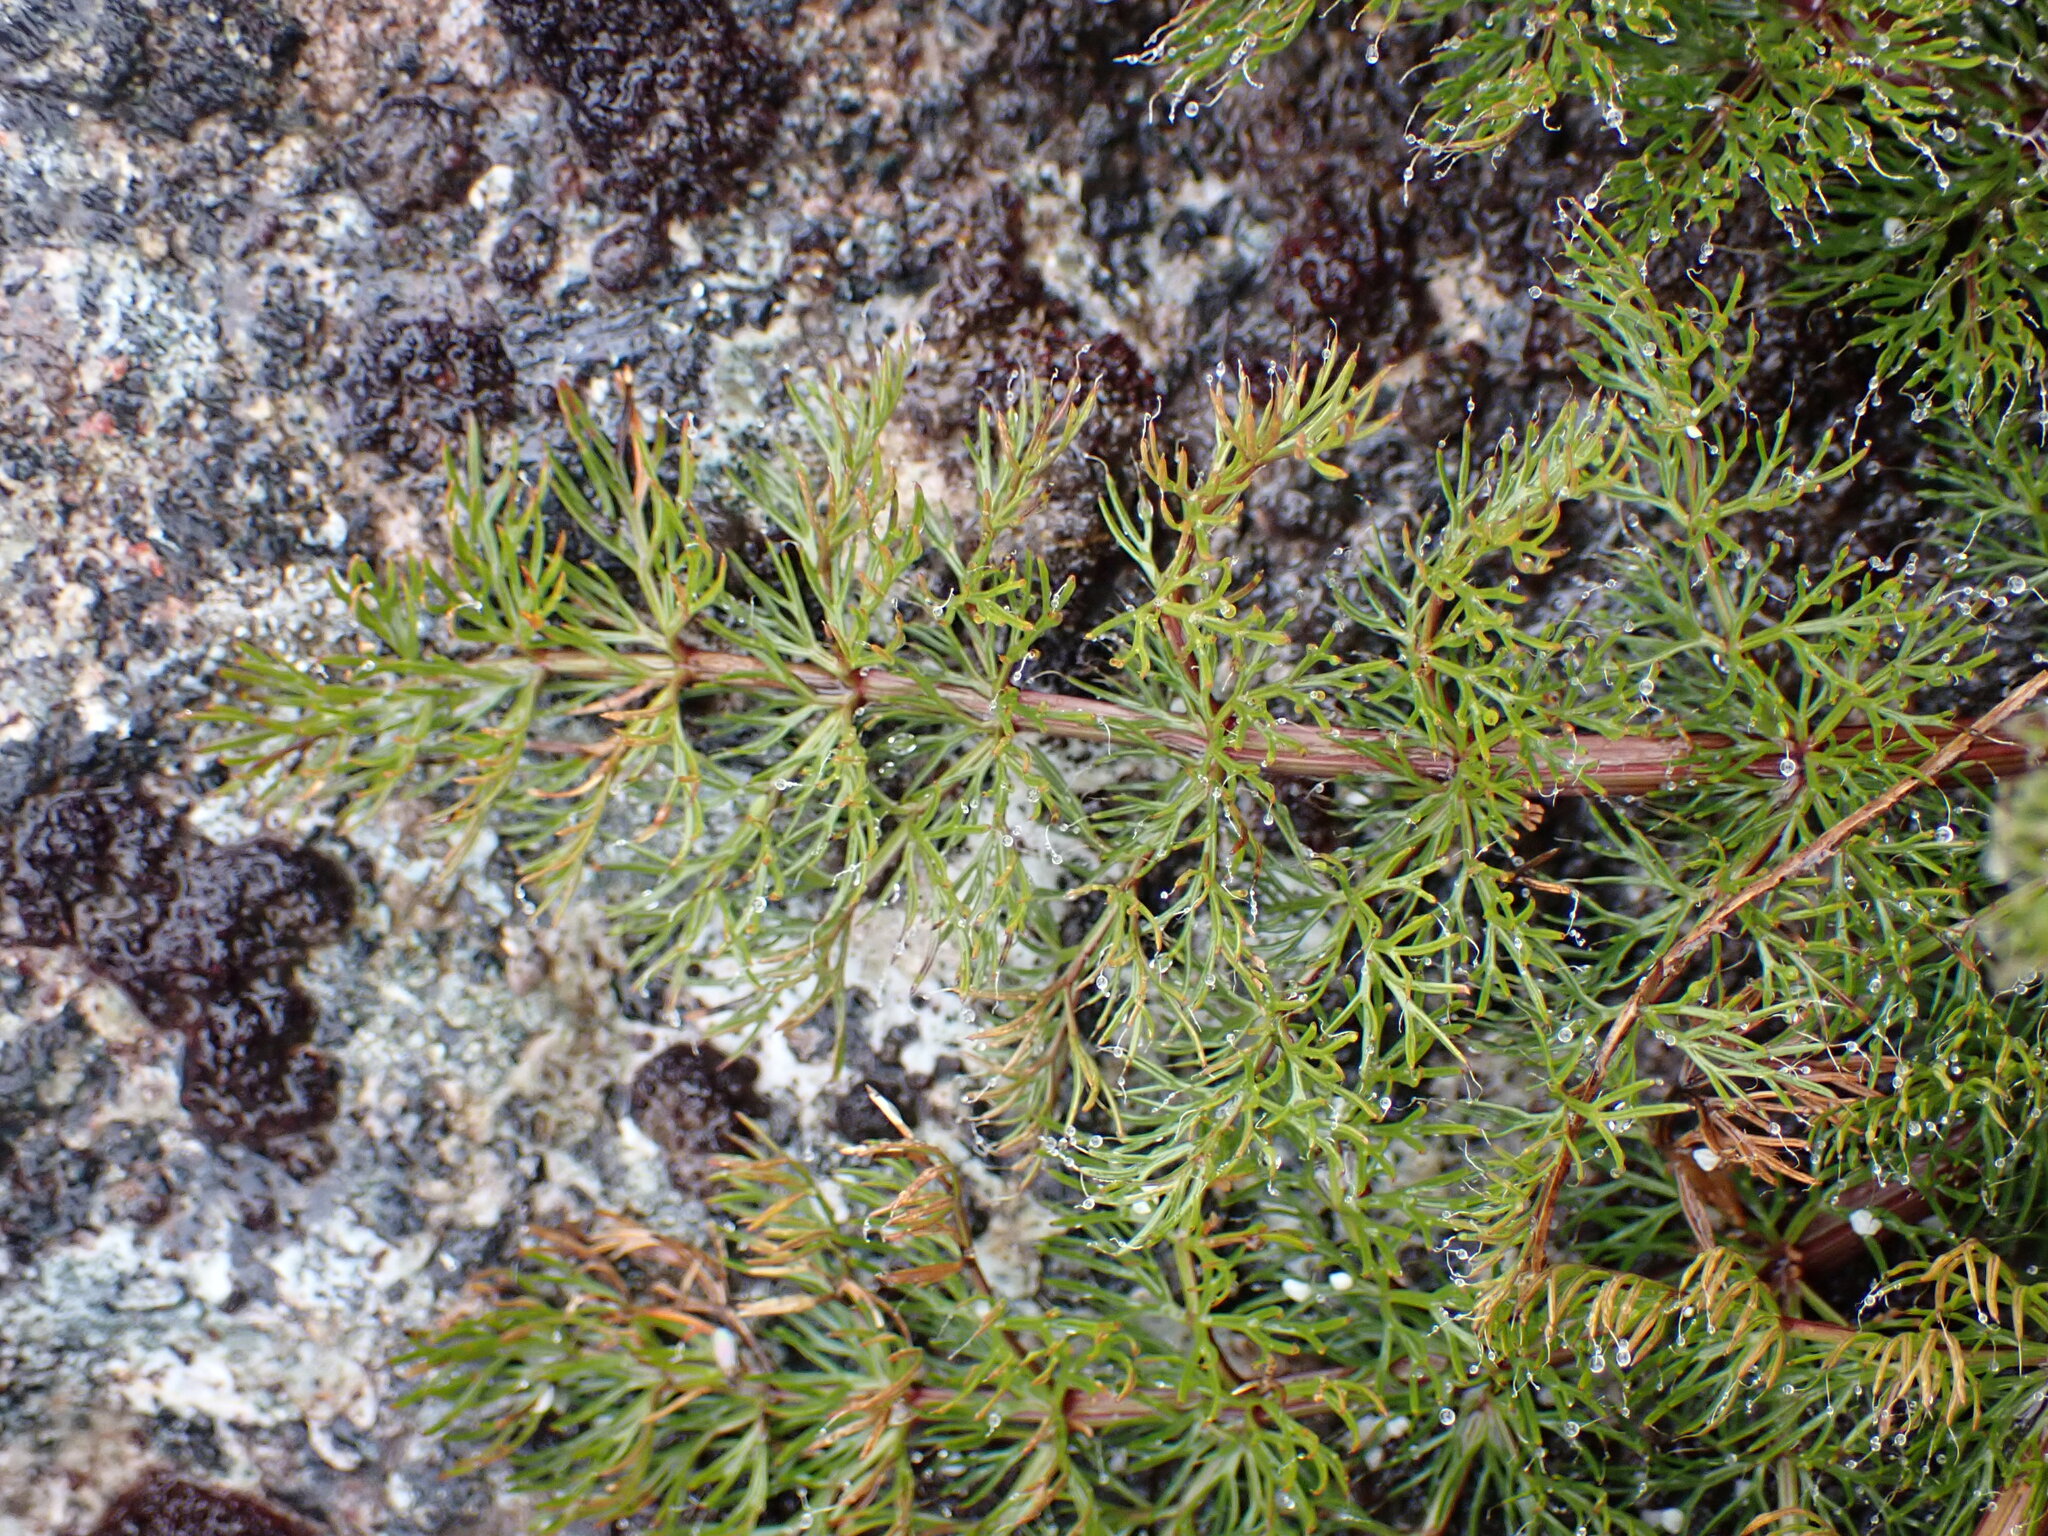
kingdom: Plantae
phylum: Tracheophyta
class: Magnoliopsida
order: Apiales
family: Apiaceae
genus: Anisotome
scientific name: Anisotome haastii
